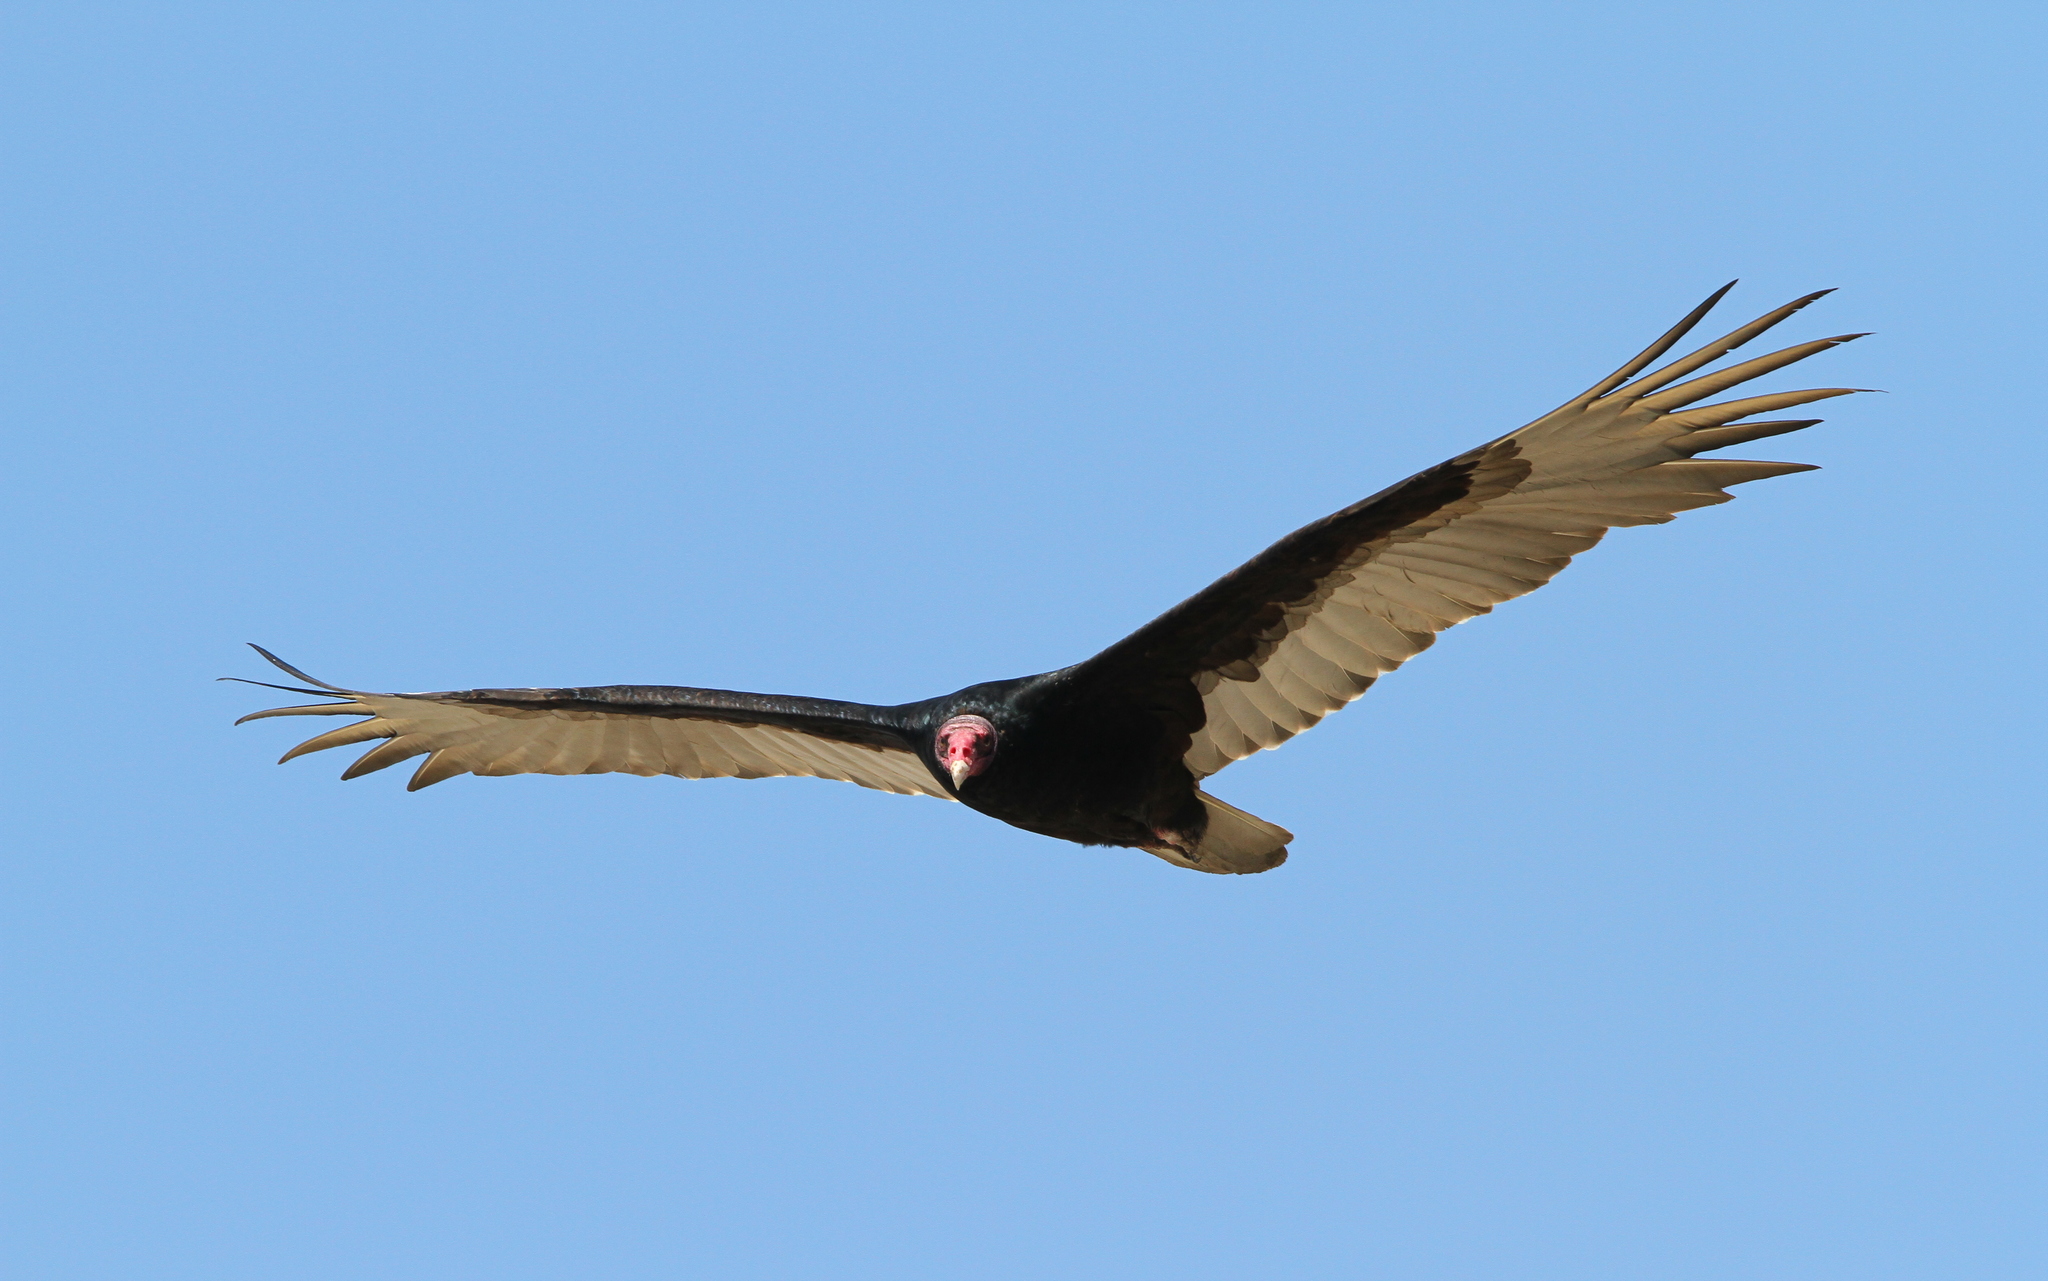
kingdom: Animalia
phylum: Chordata
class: Aves
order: Accipitriformes
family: Cathartidae
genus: Cathartes
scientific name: Cathartes aura
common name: Turkey vulture
